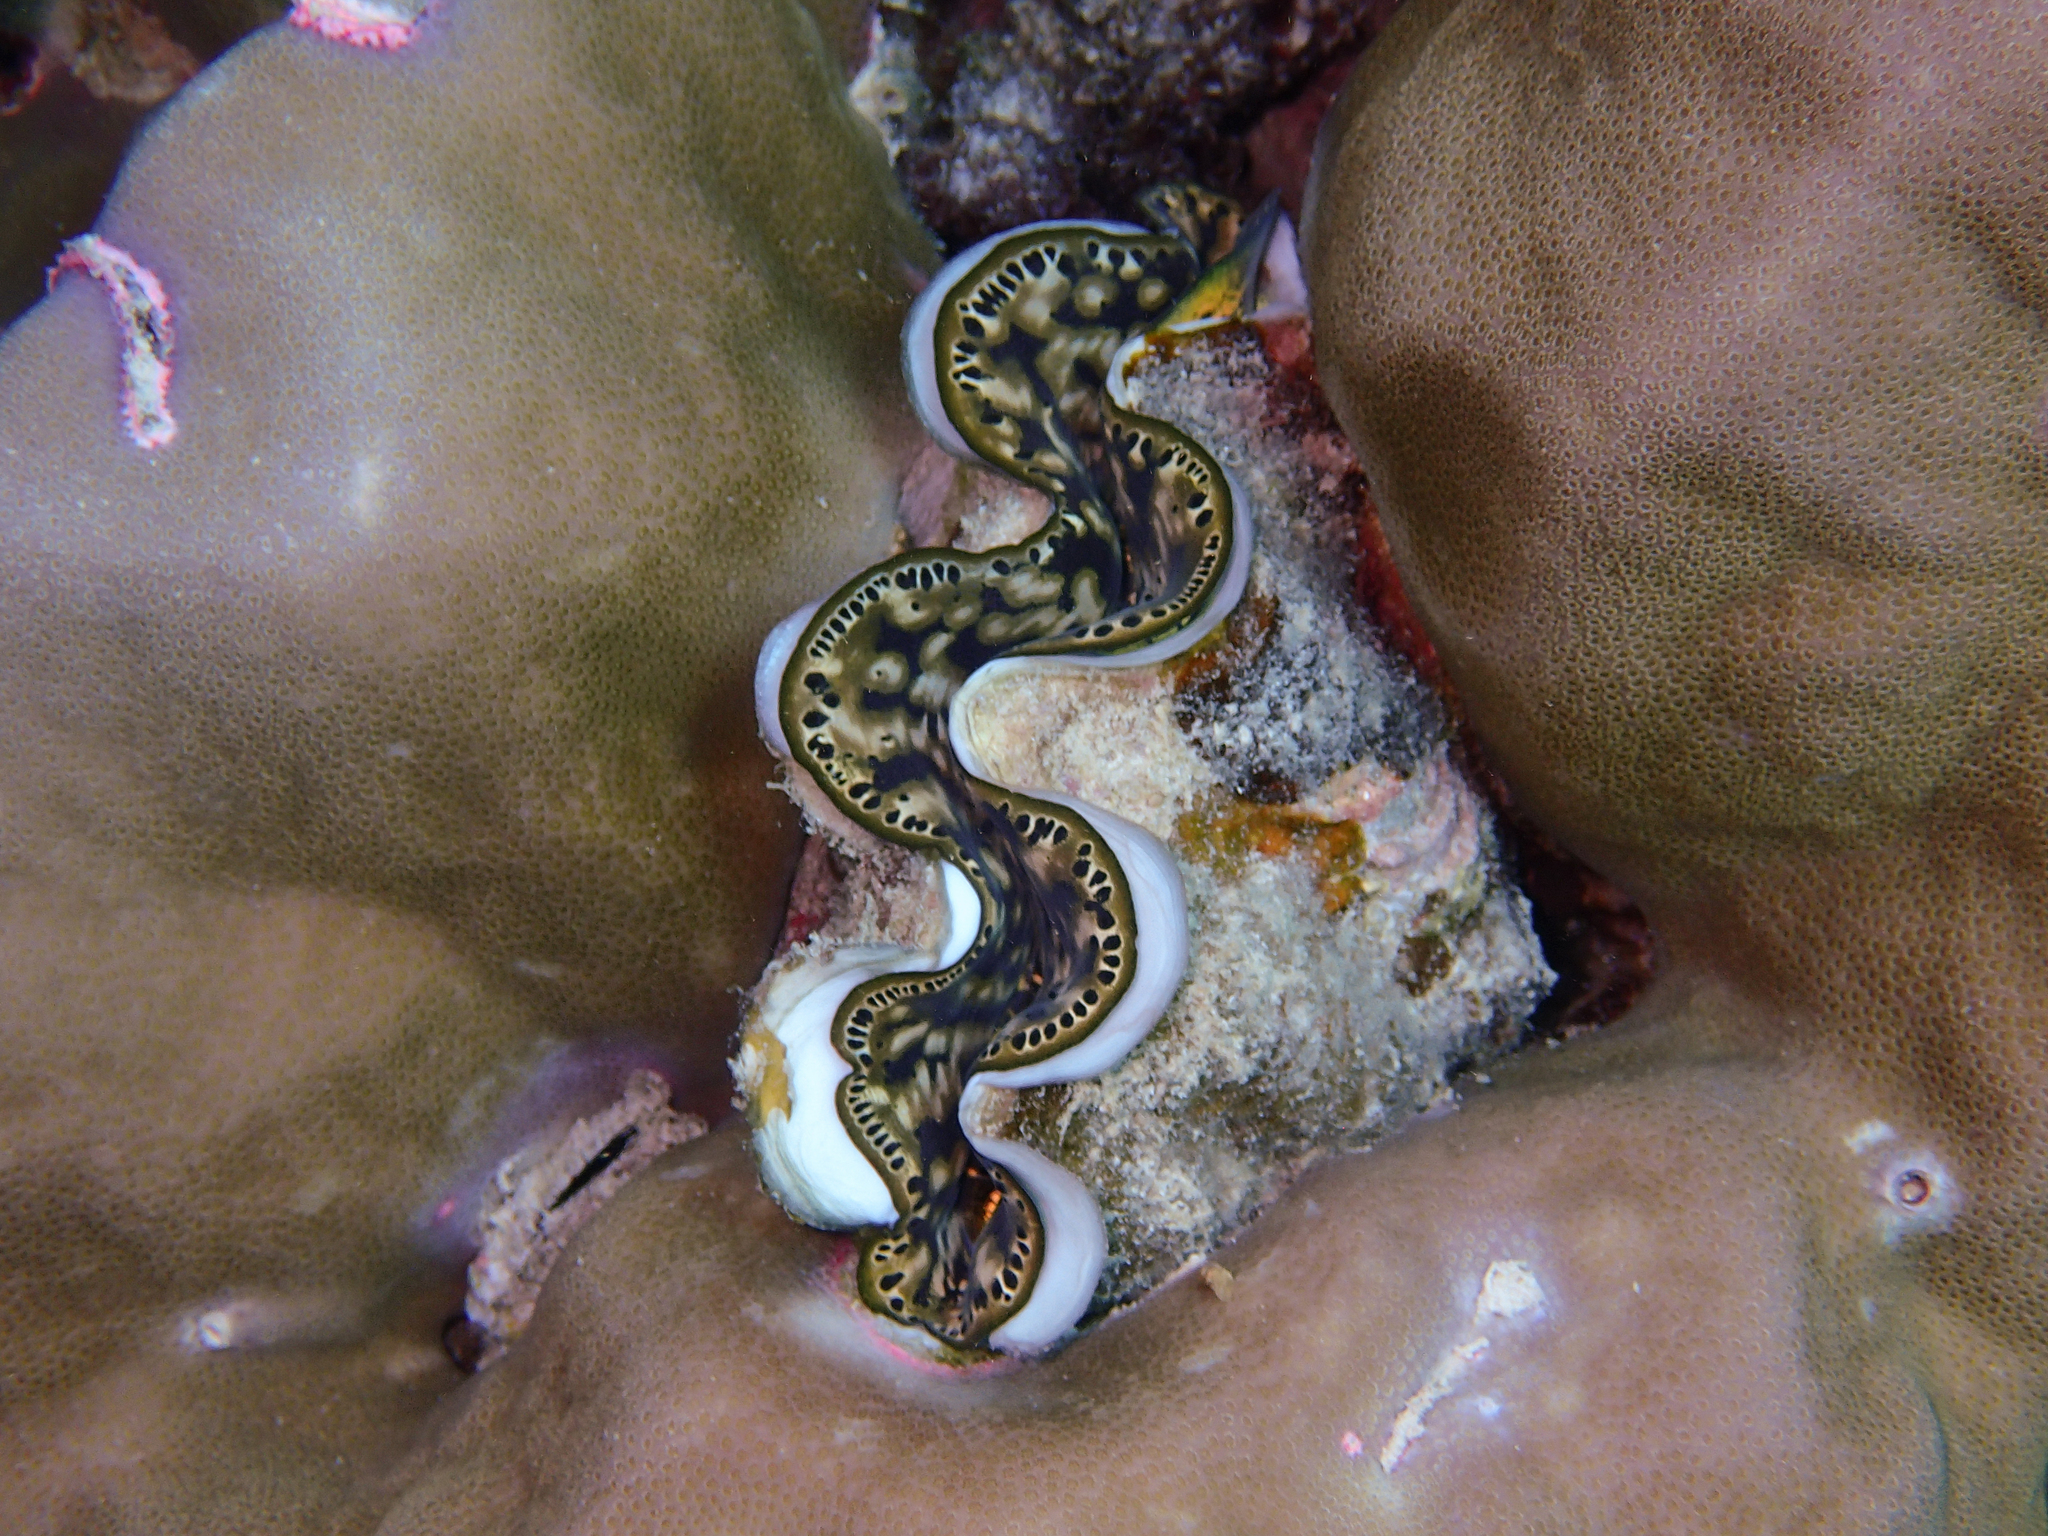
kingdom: Animalia
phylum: Mollusca
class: Bivalvia
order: Cardiida
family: Cardiidae
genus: Tridacna
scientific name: Tridacna maxima
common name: Small giant clam
